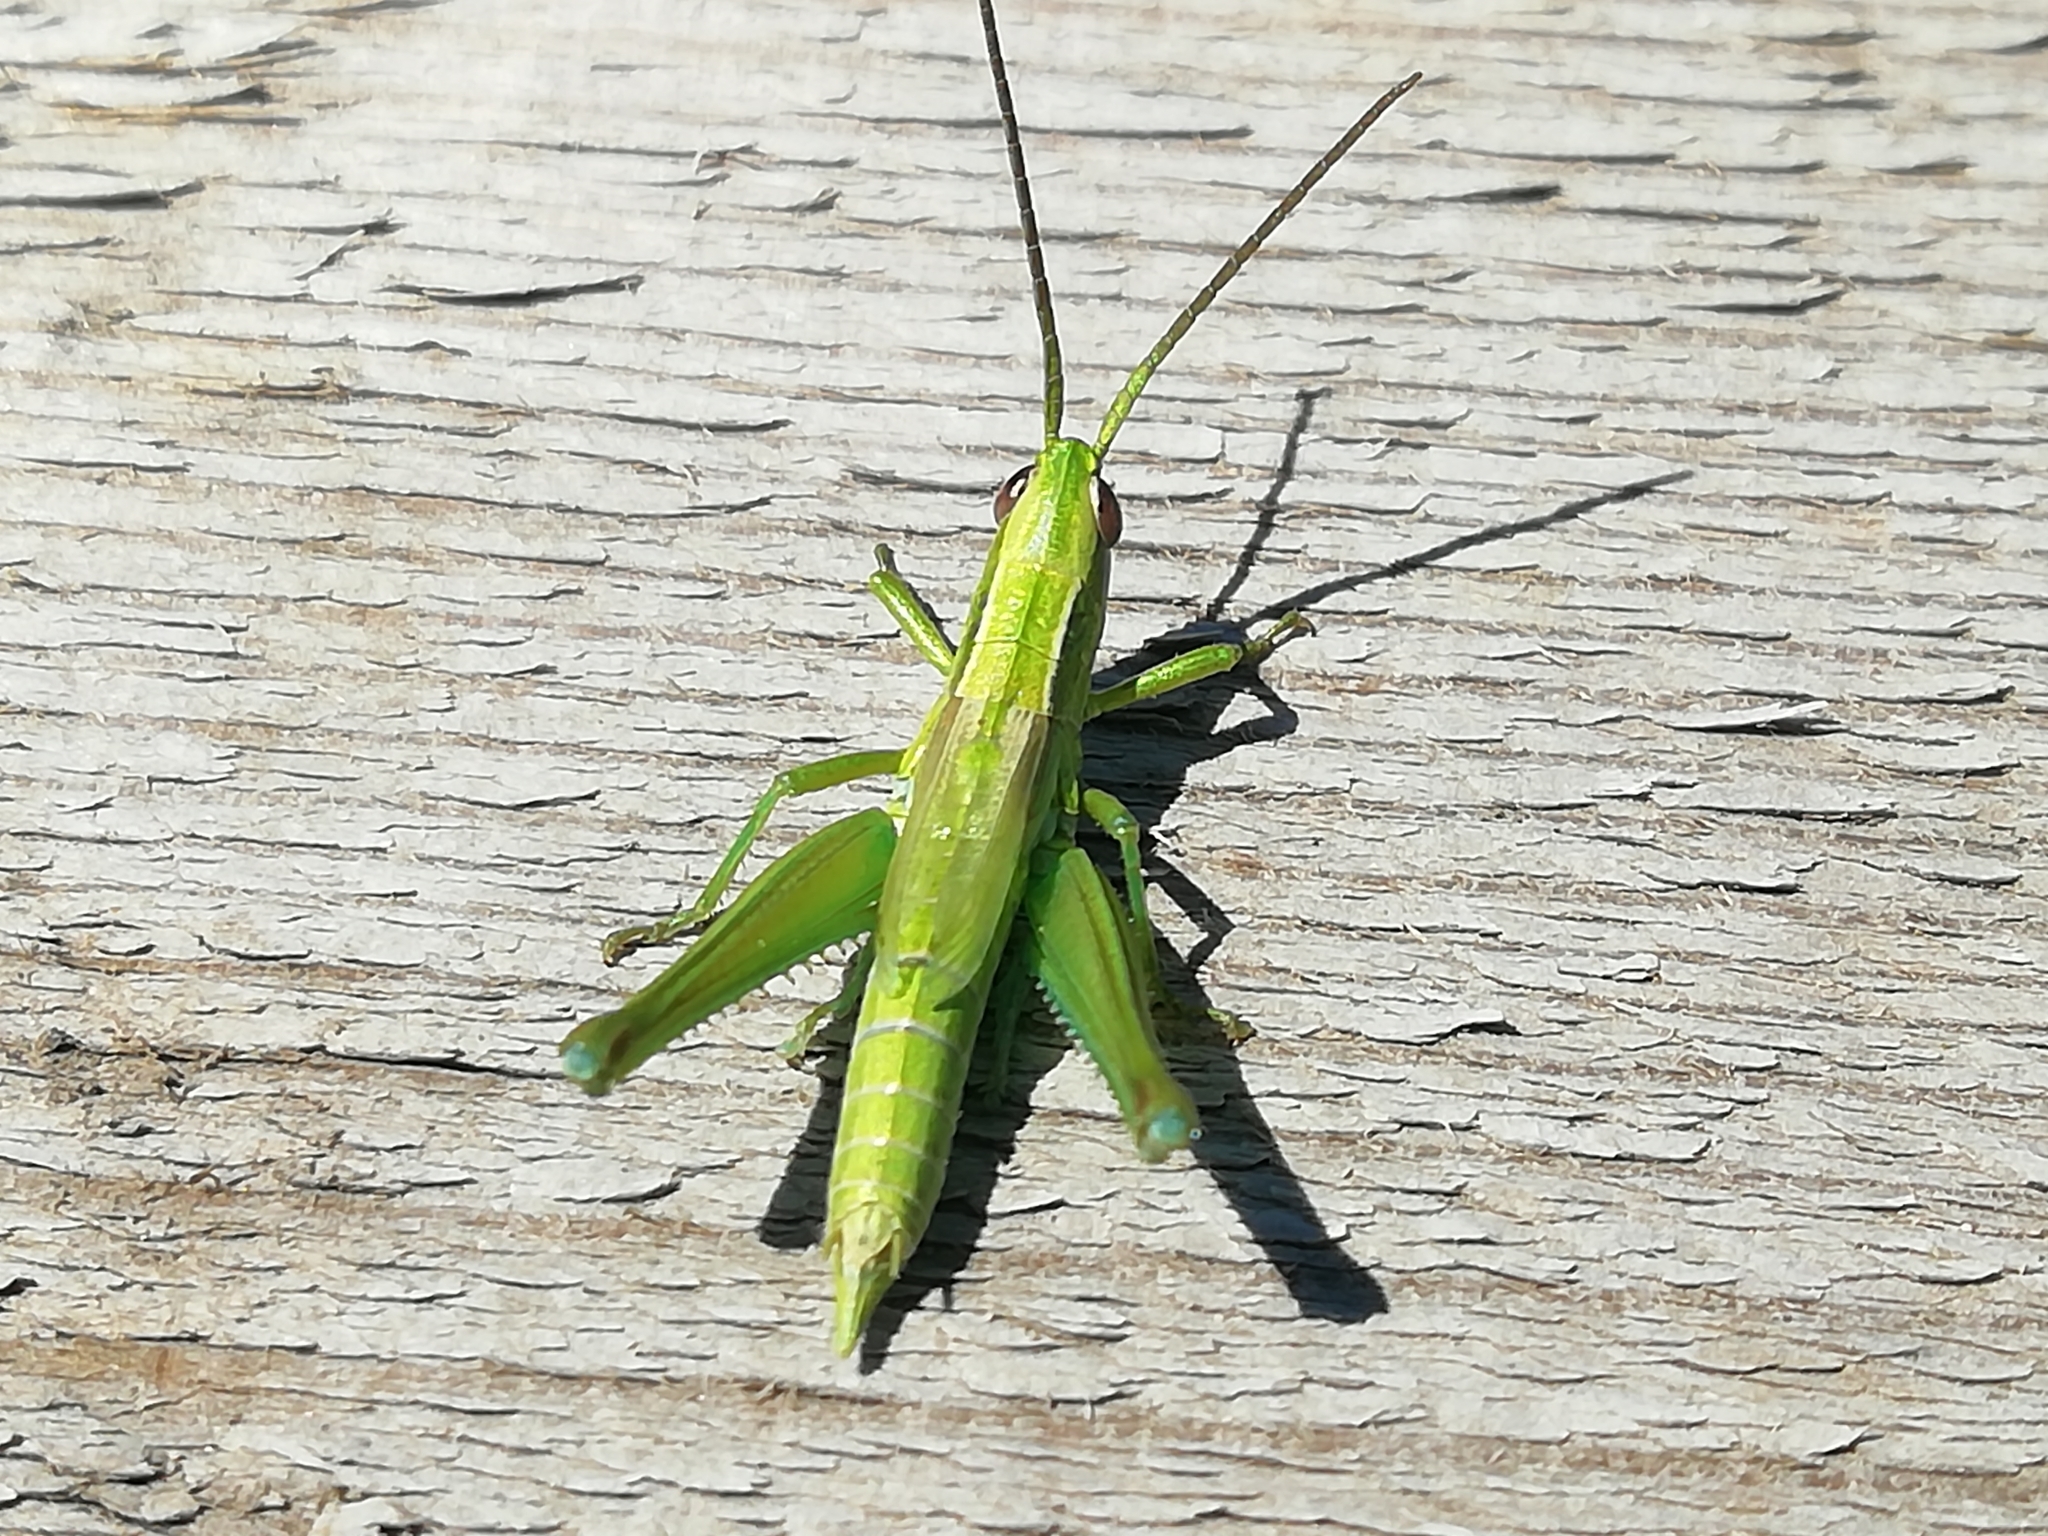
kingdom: Animalia
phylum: Arthropoda
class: Insecta
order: Orthoptera
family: Acrididae
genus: Euthystira
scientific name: Euthystira brachyptera
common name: Small gold grasshopper
